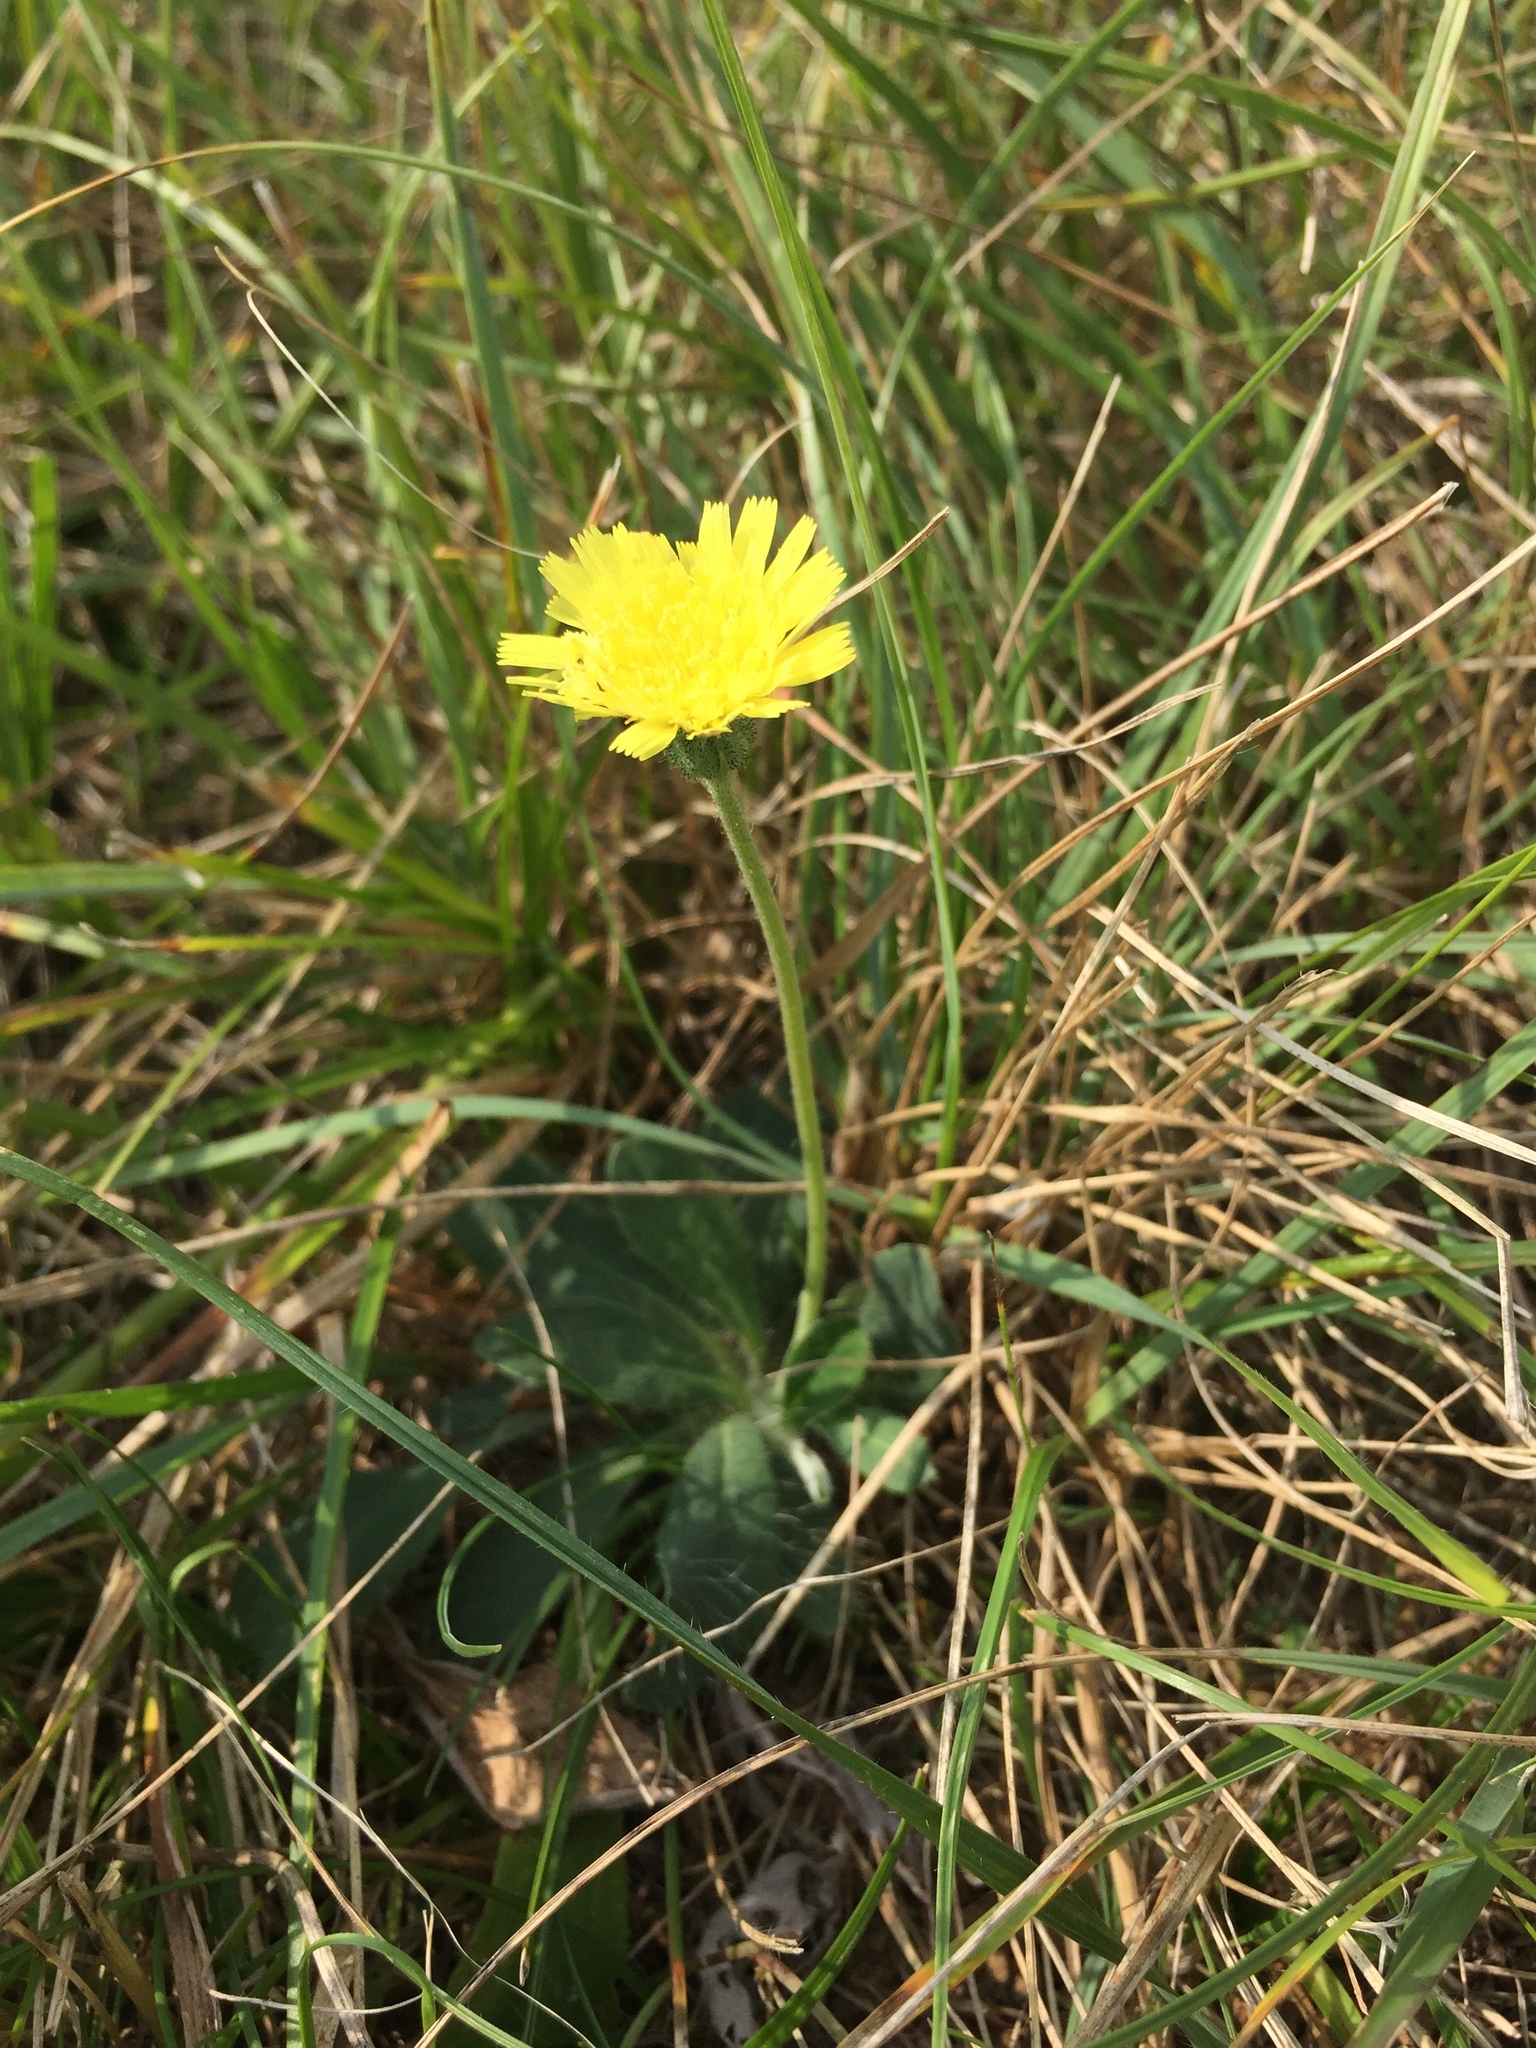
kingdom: Plantae
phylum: Tracheophyta
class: Magnoliopsida
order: Asterales
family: Asteraceae
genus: Pilosella
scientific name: Pilosella officinarum
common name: Mouse-ear hawkweed
